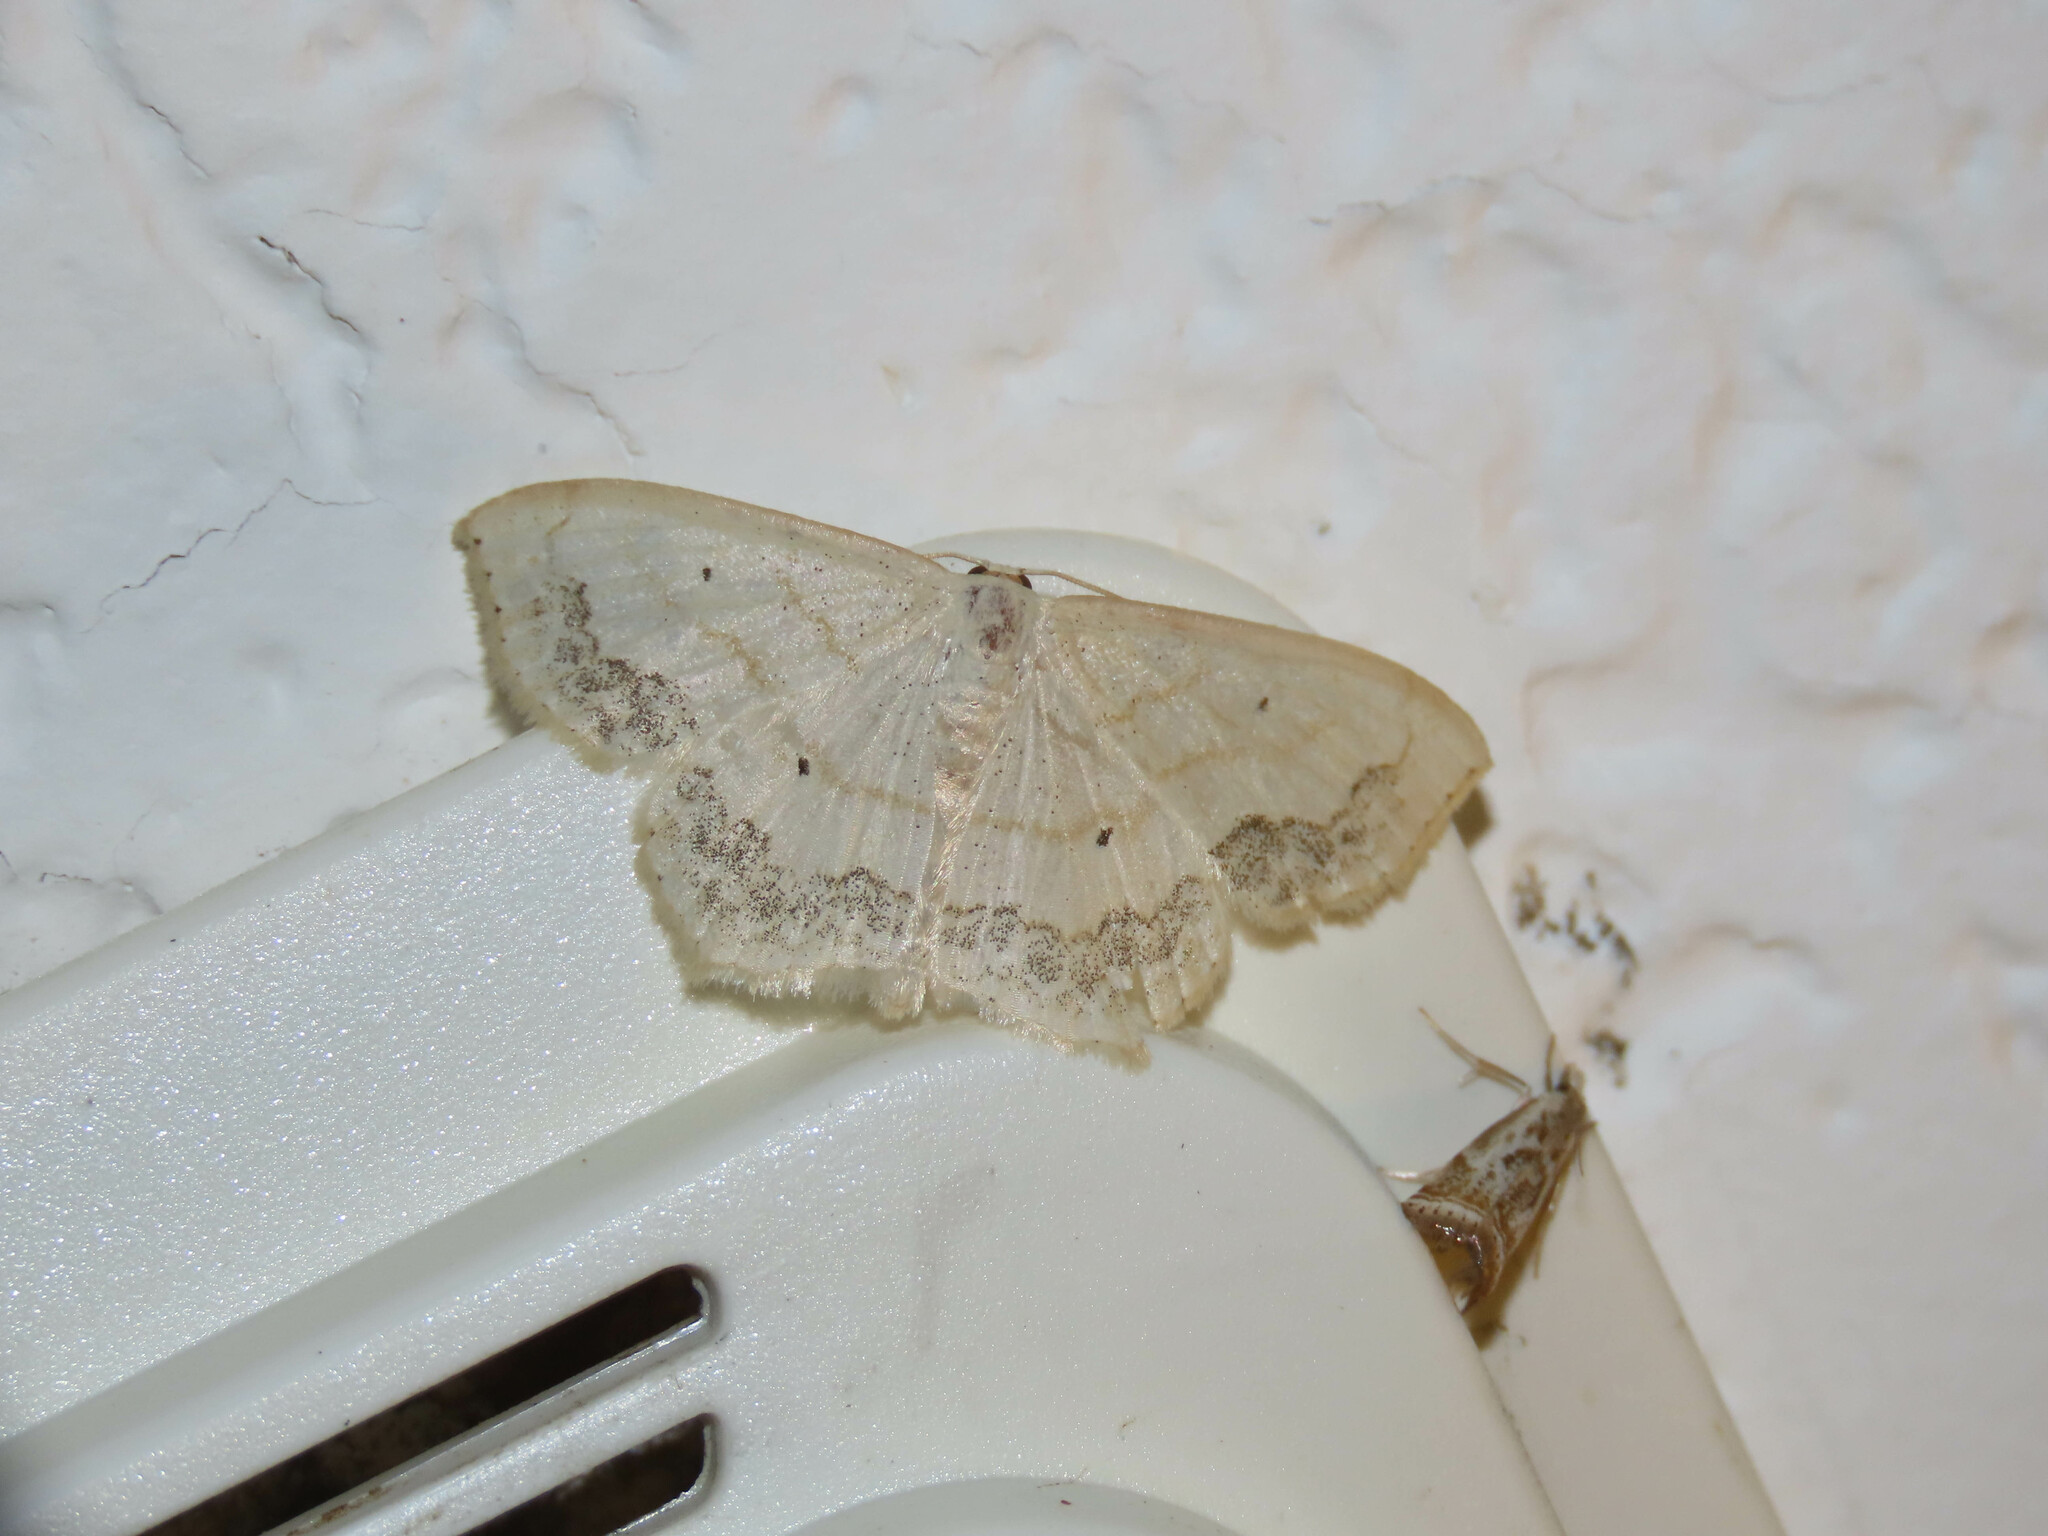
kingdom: Animalia
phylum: Arthropoda
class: Insecta
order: Lepidoptera
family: Geometridae
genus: Scopula
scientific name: Scopula limboundata
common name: Large lace border
